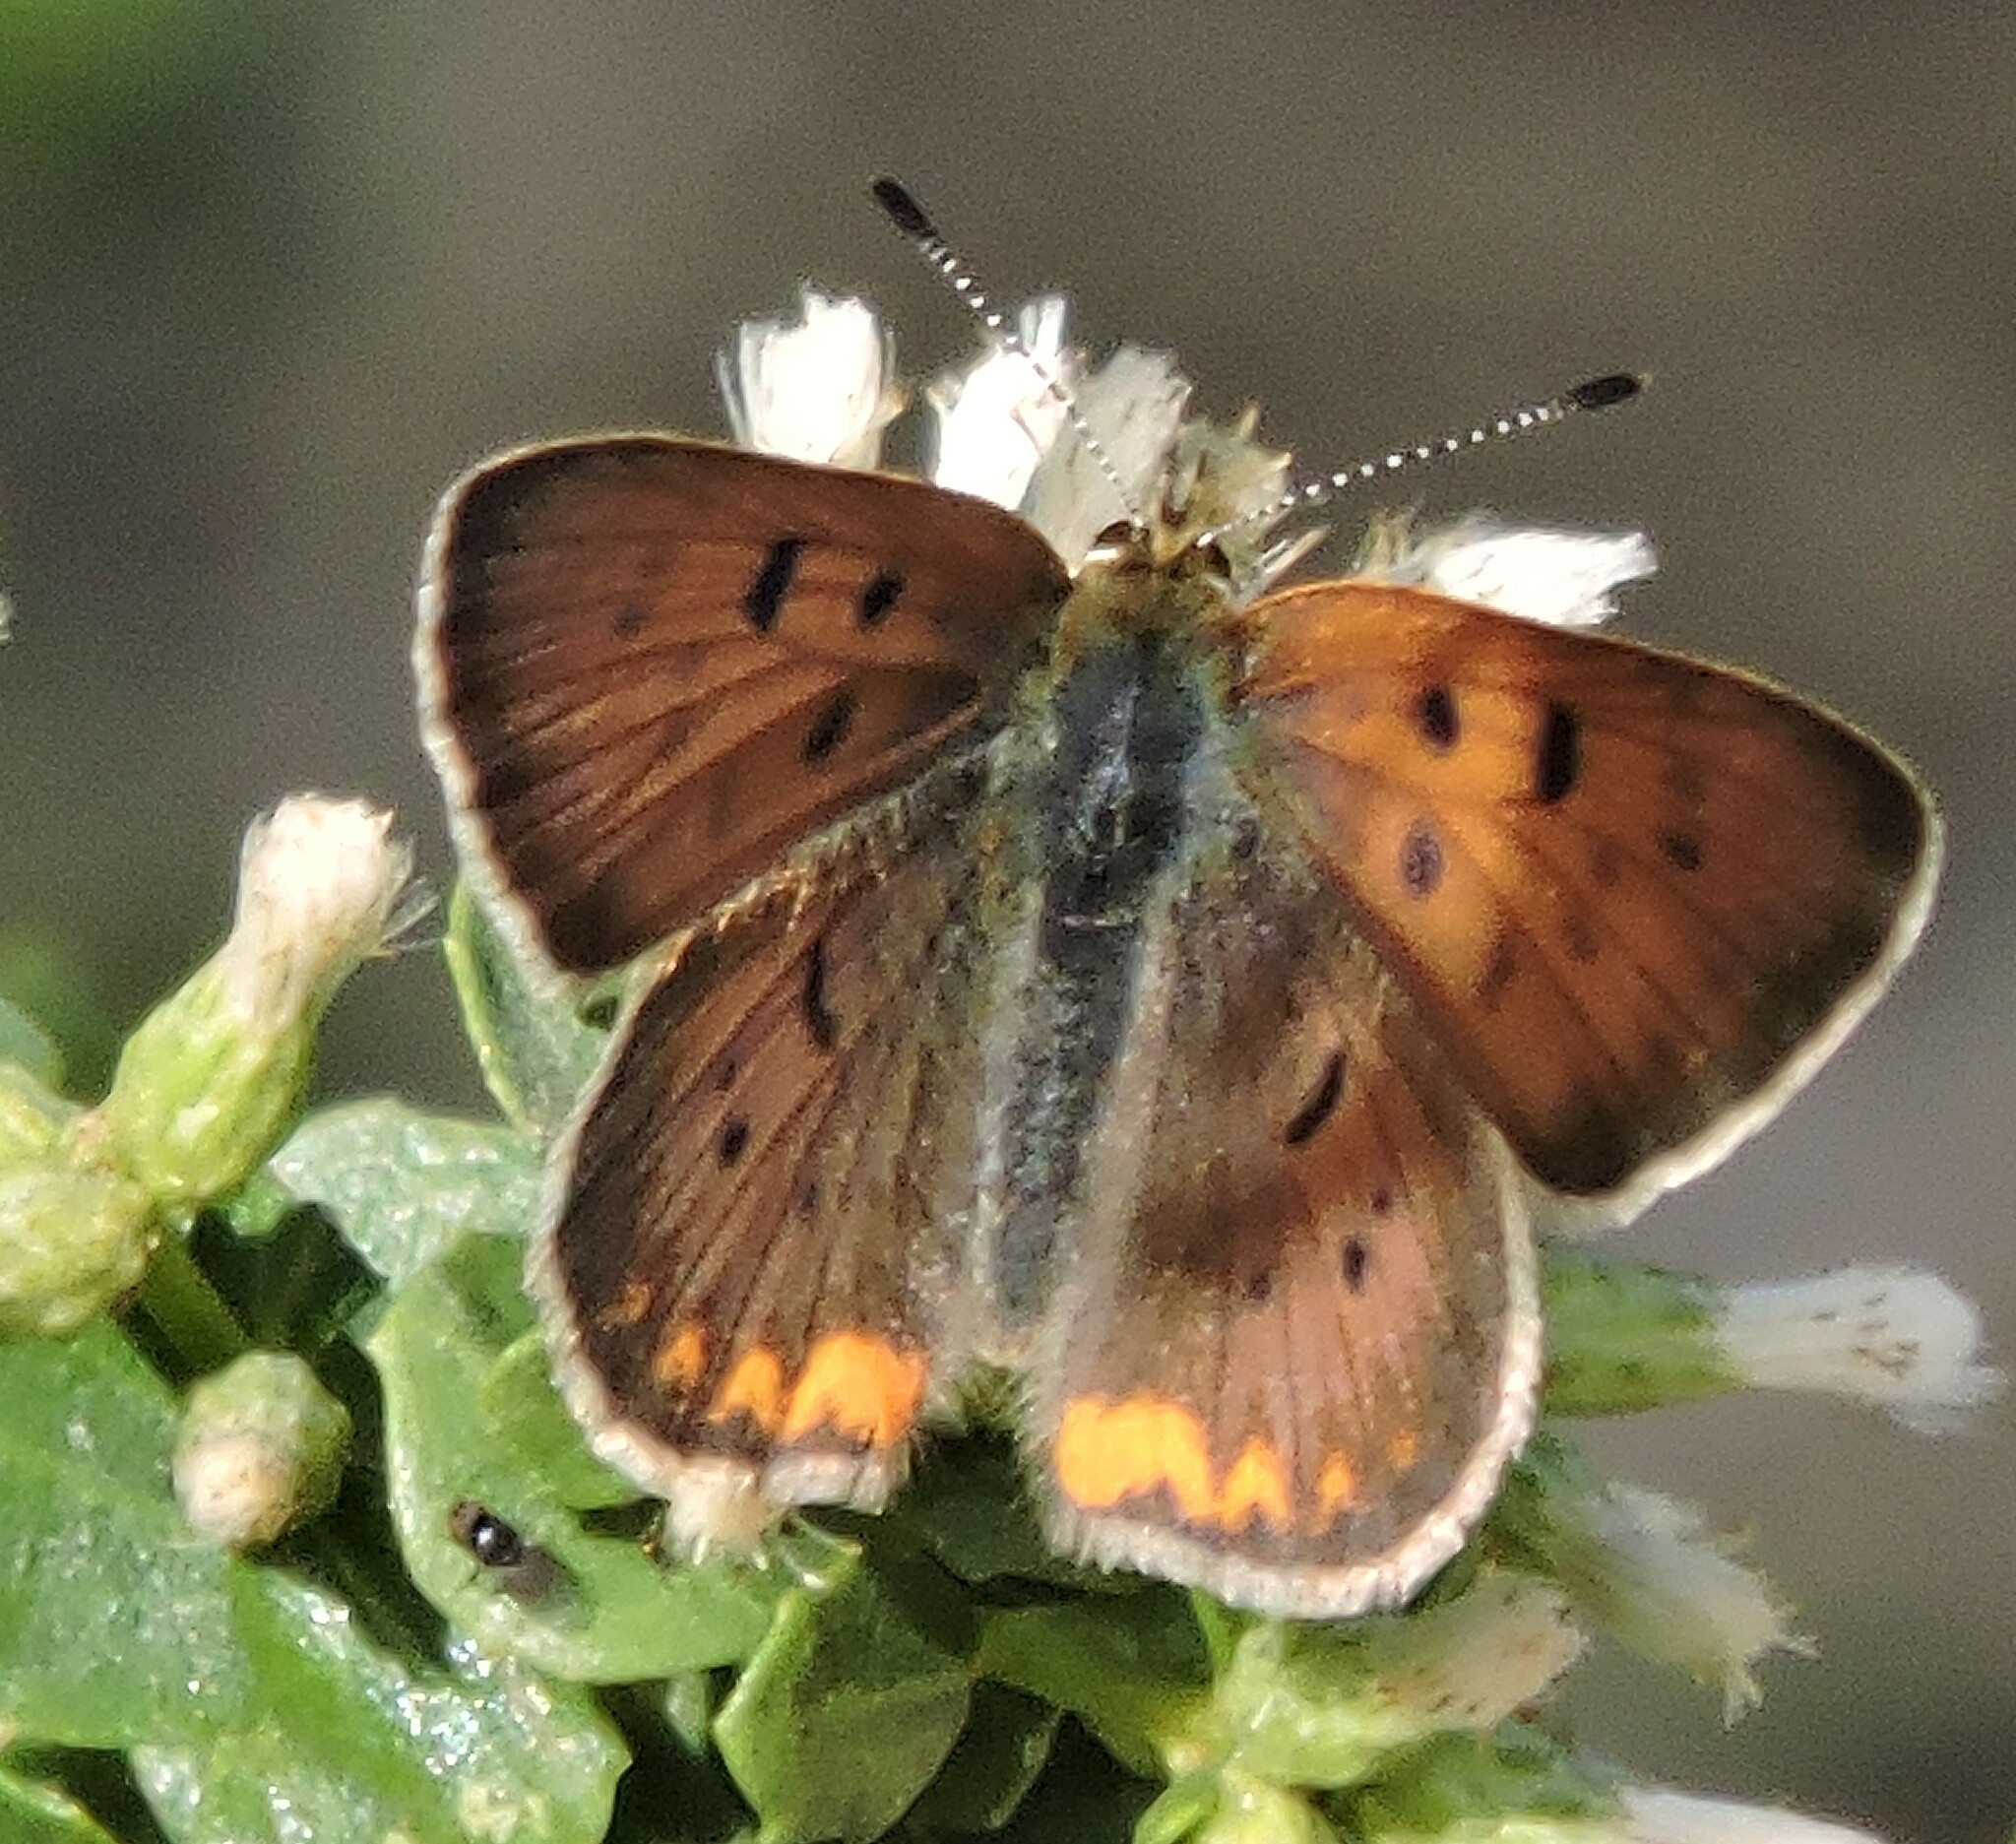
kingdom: Animalia
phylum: Arthropoda
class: Insecta
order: Lepidoptera
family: Lycaenidae
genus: Tharsalea
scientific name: Tharsalea helloides
